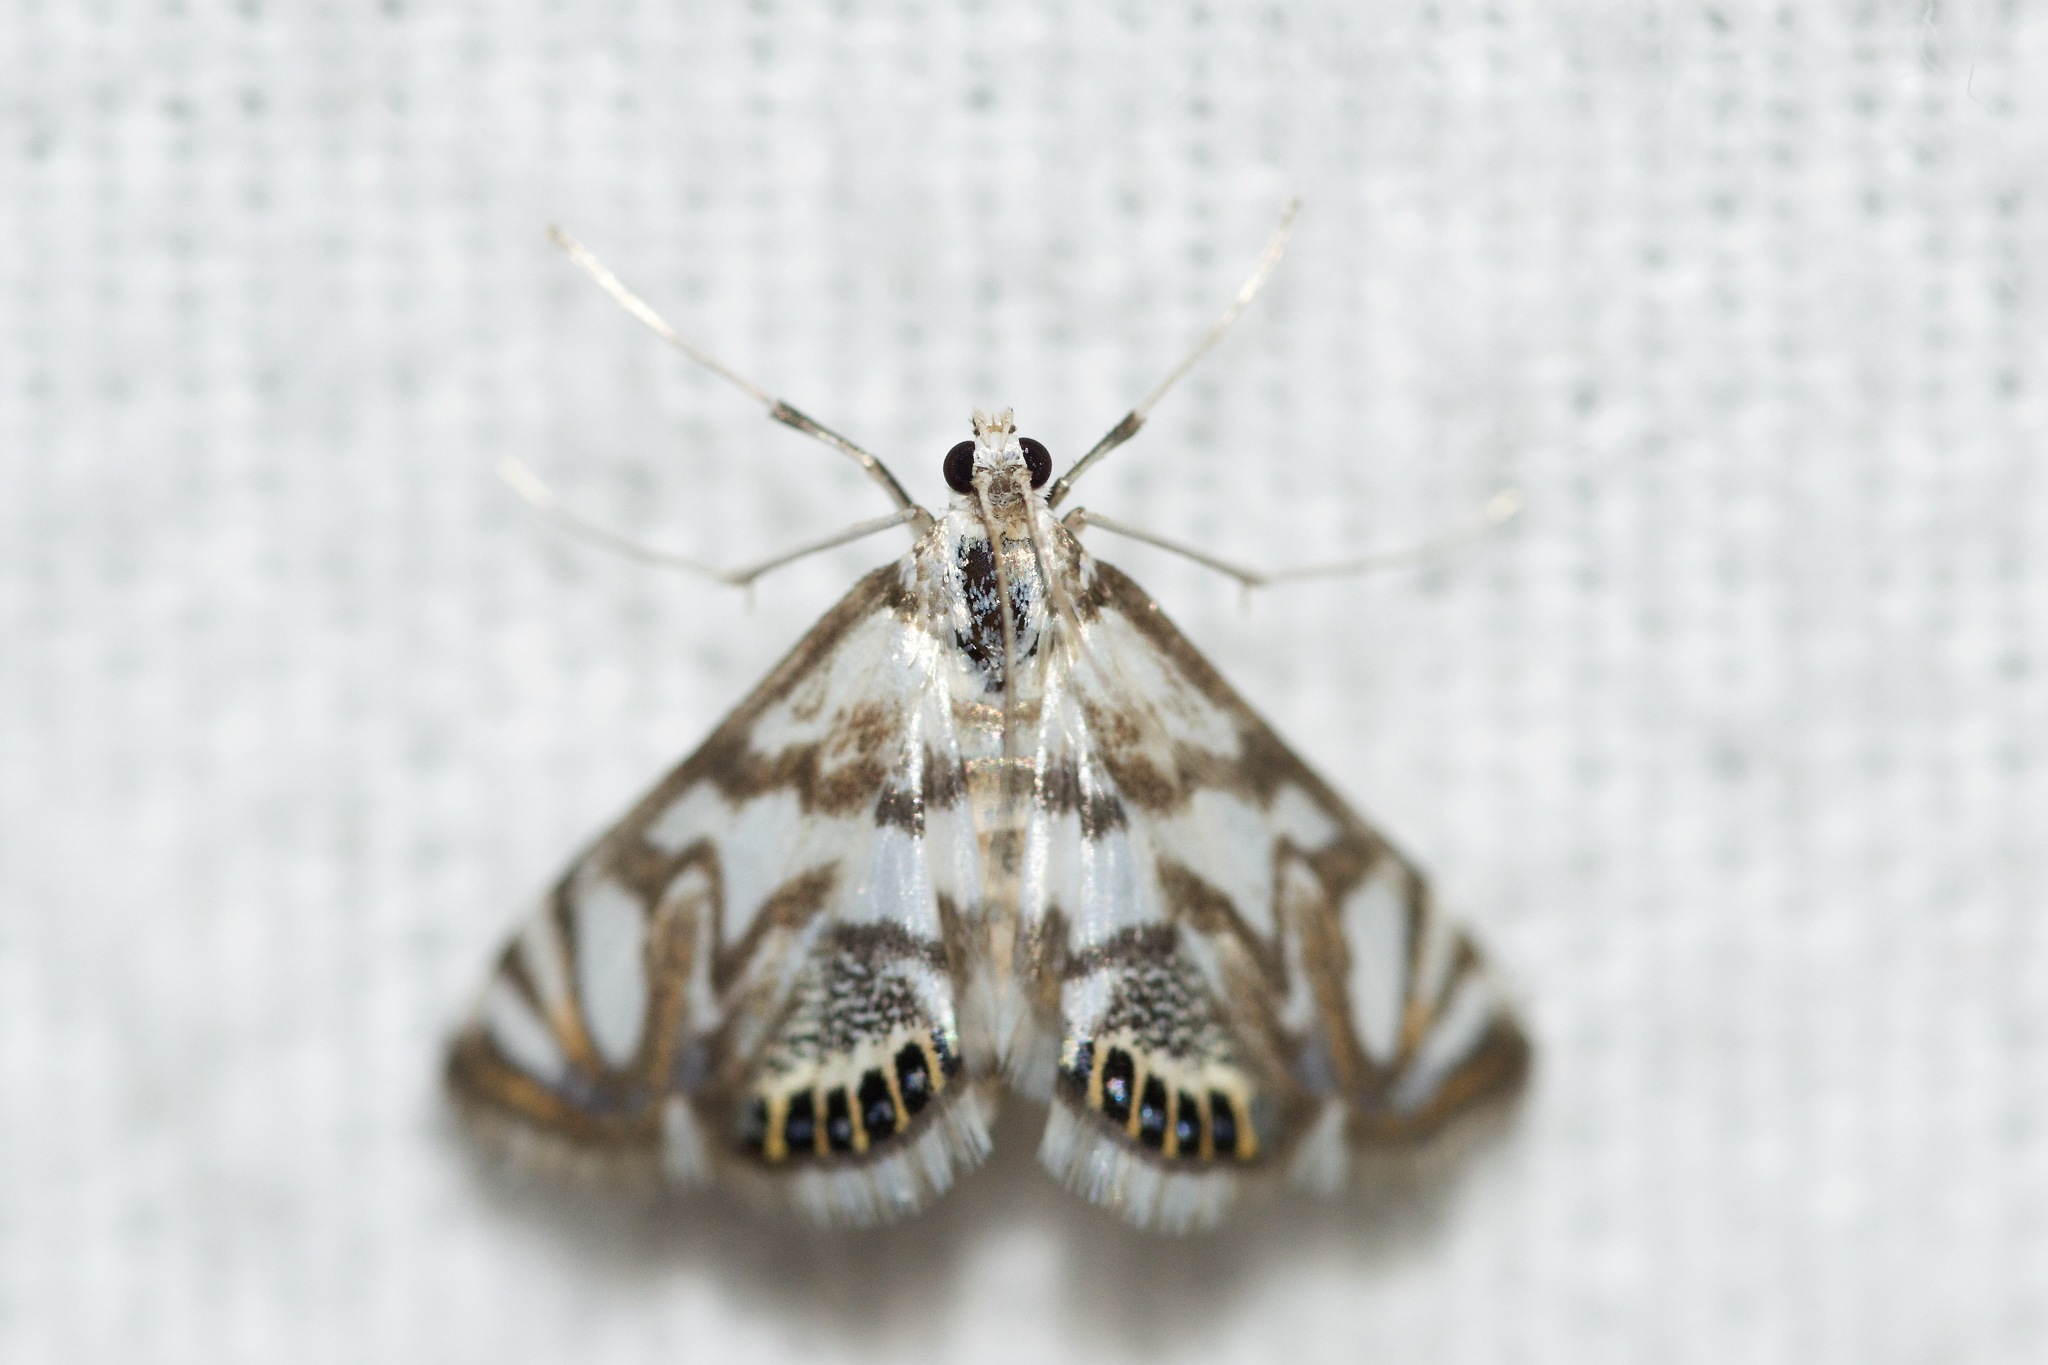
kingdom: Animalia
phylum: Arthropoda
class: Insecta
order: Lepidoptera
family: Crambidae
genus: Neocataclysta
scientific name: Neocataclysta magnificalis
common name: Scrollwork pyralid moth
